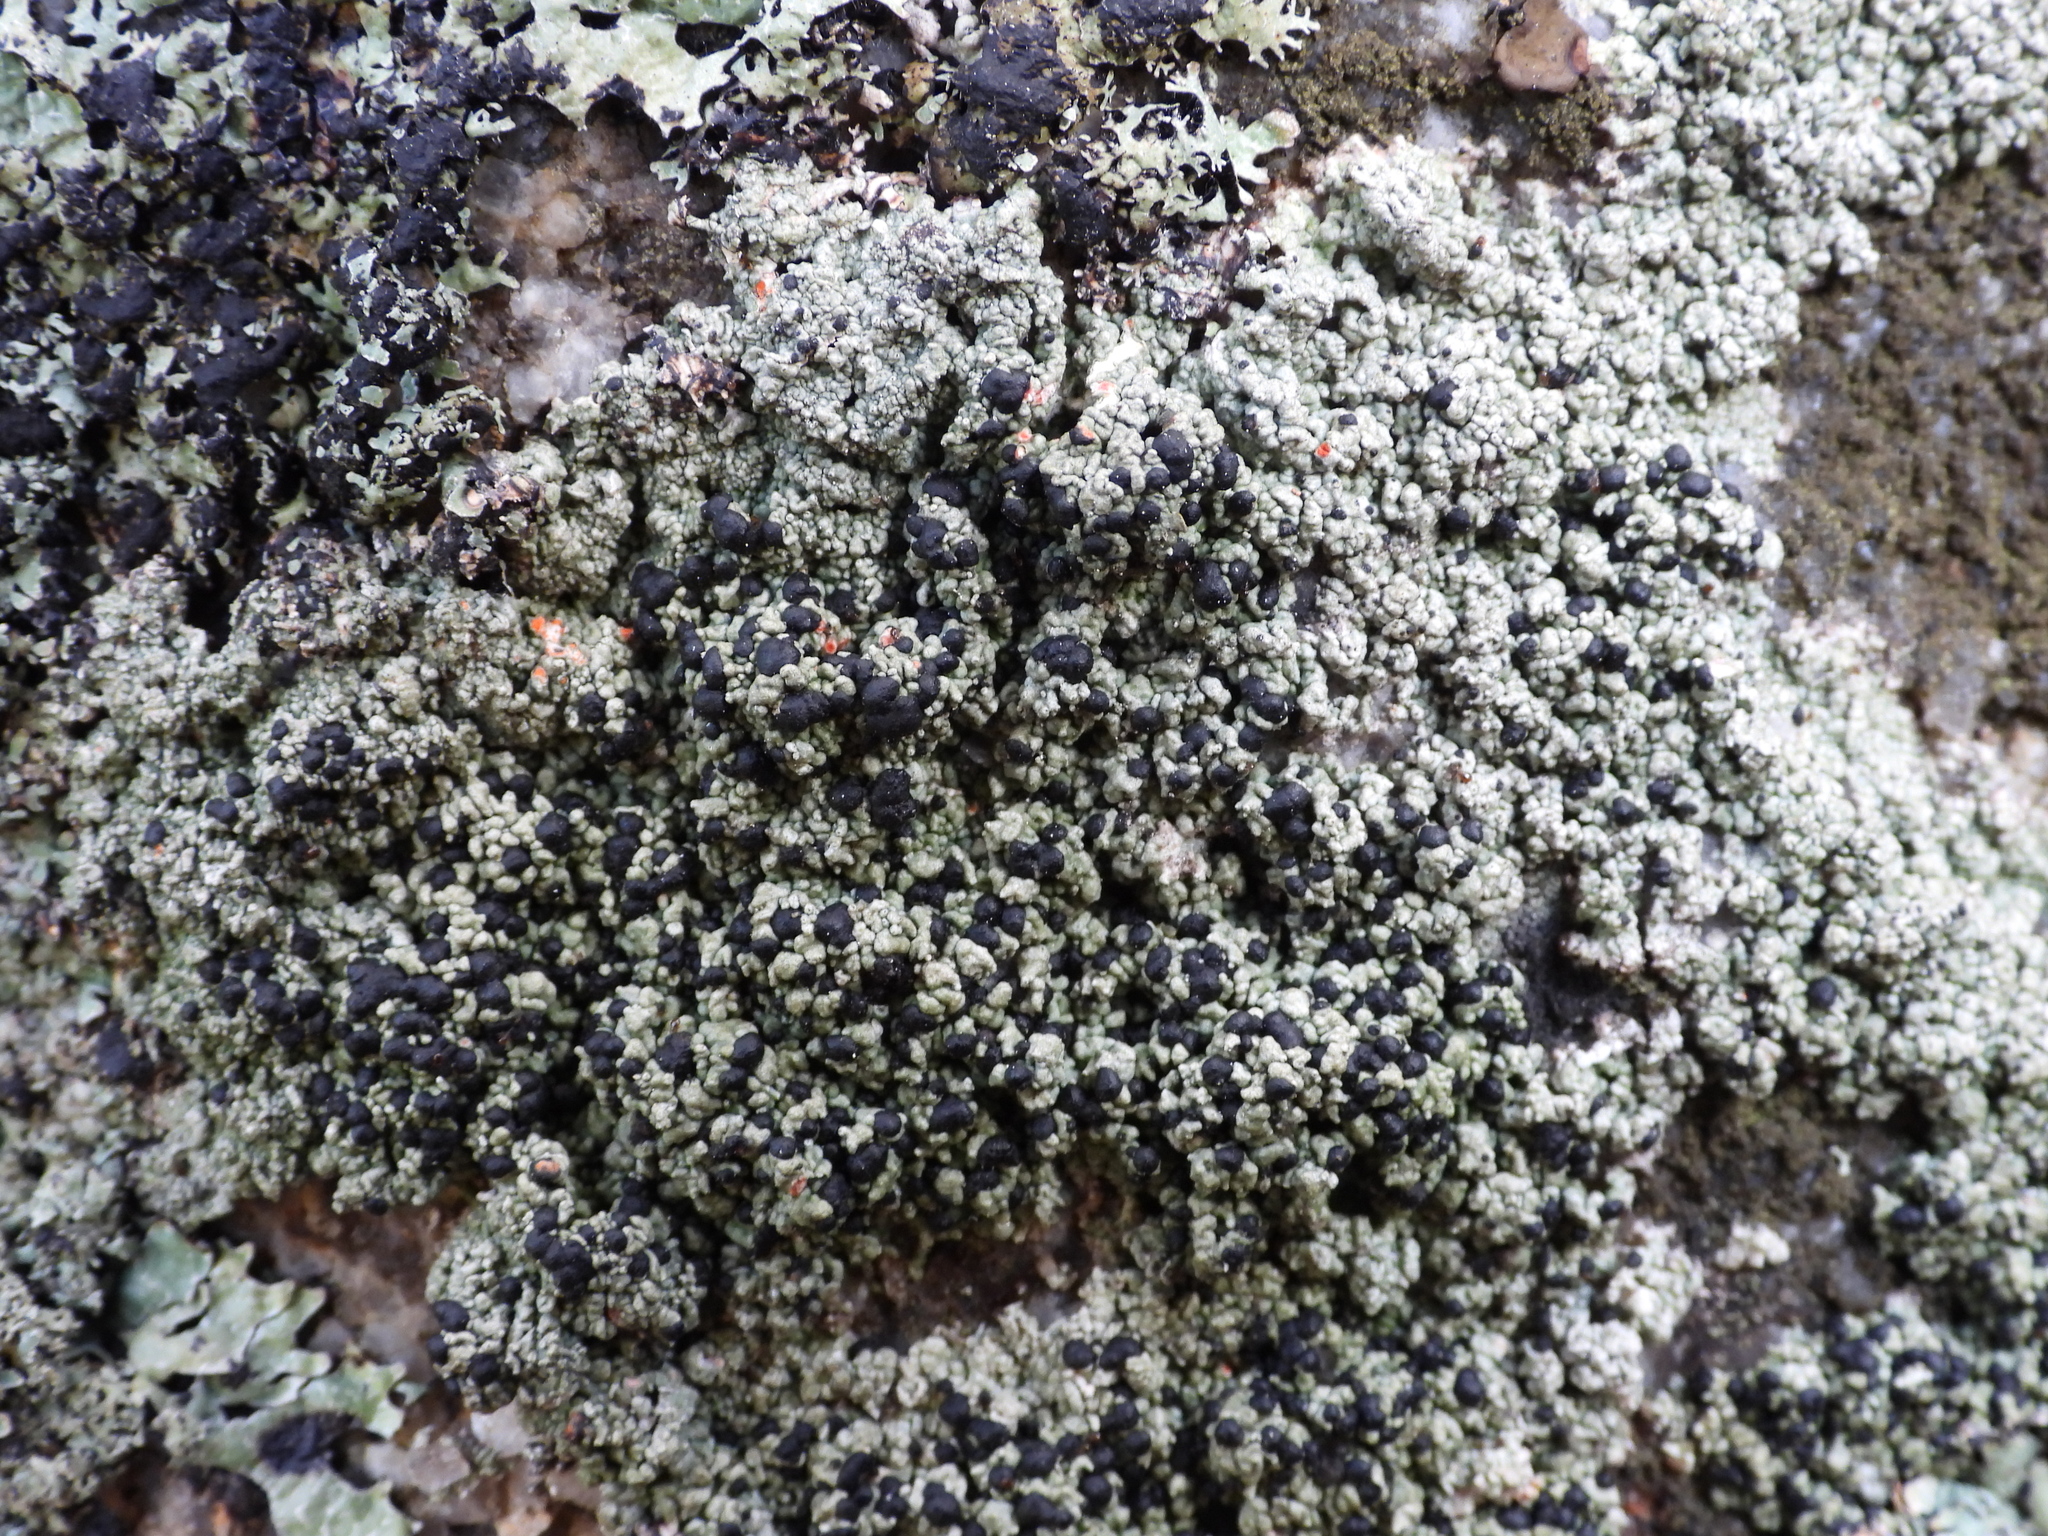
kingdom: Fungi
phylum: Ascomycota
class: Lecanoromycetes
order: Lecanorales
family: Tephromelataceae
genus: Mycoblastus
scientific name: Mycoblastus sanguinarius
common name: Bloody-heart lichen
